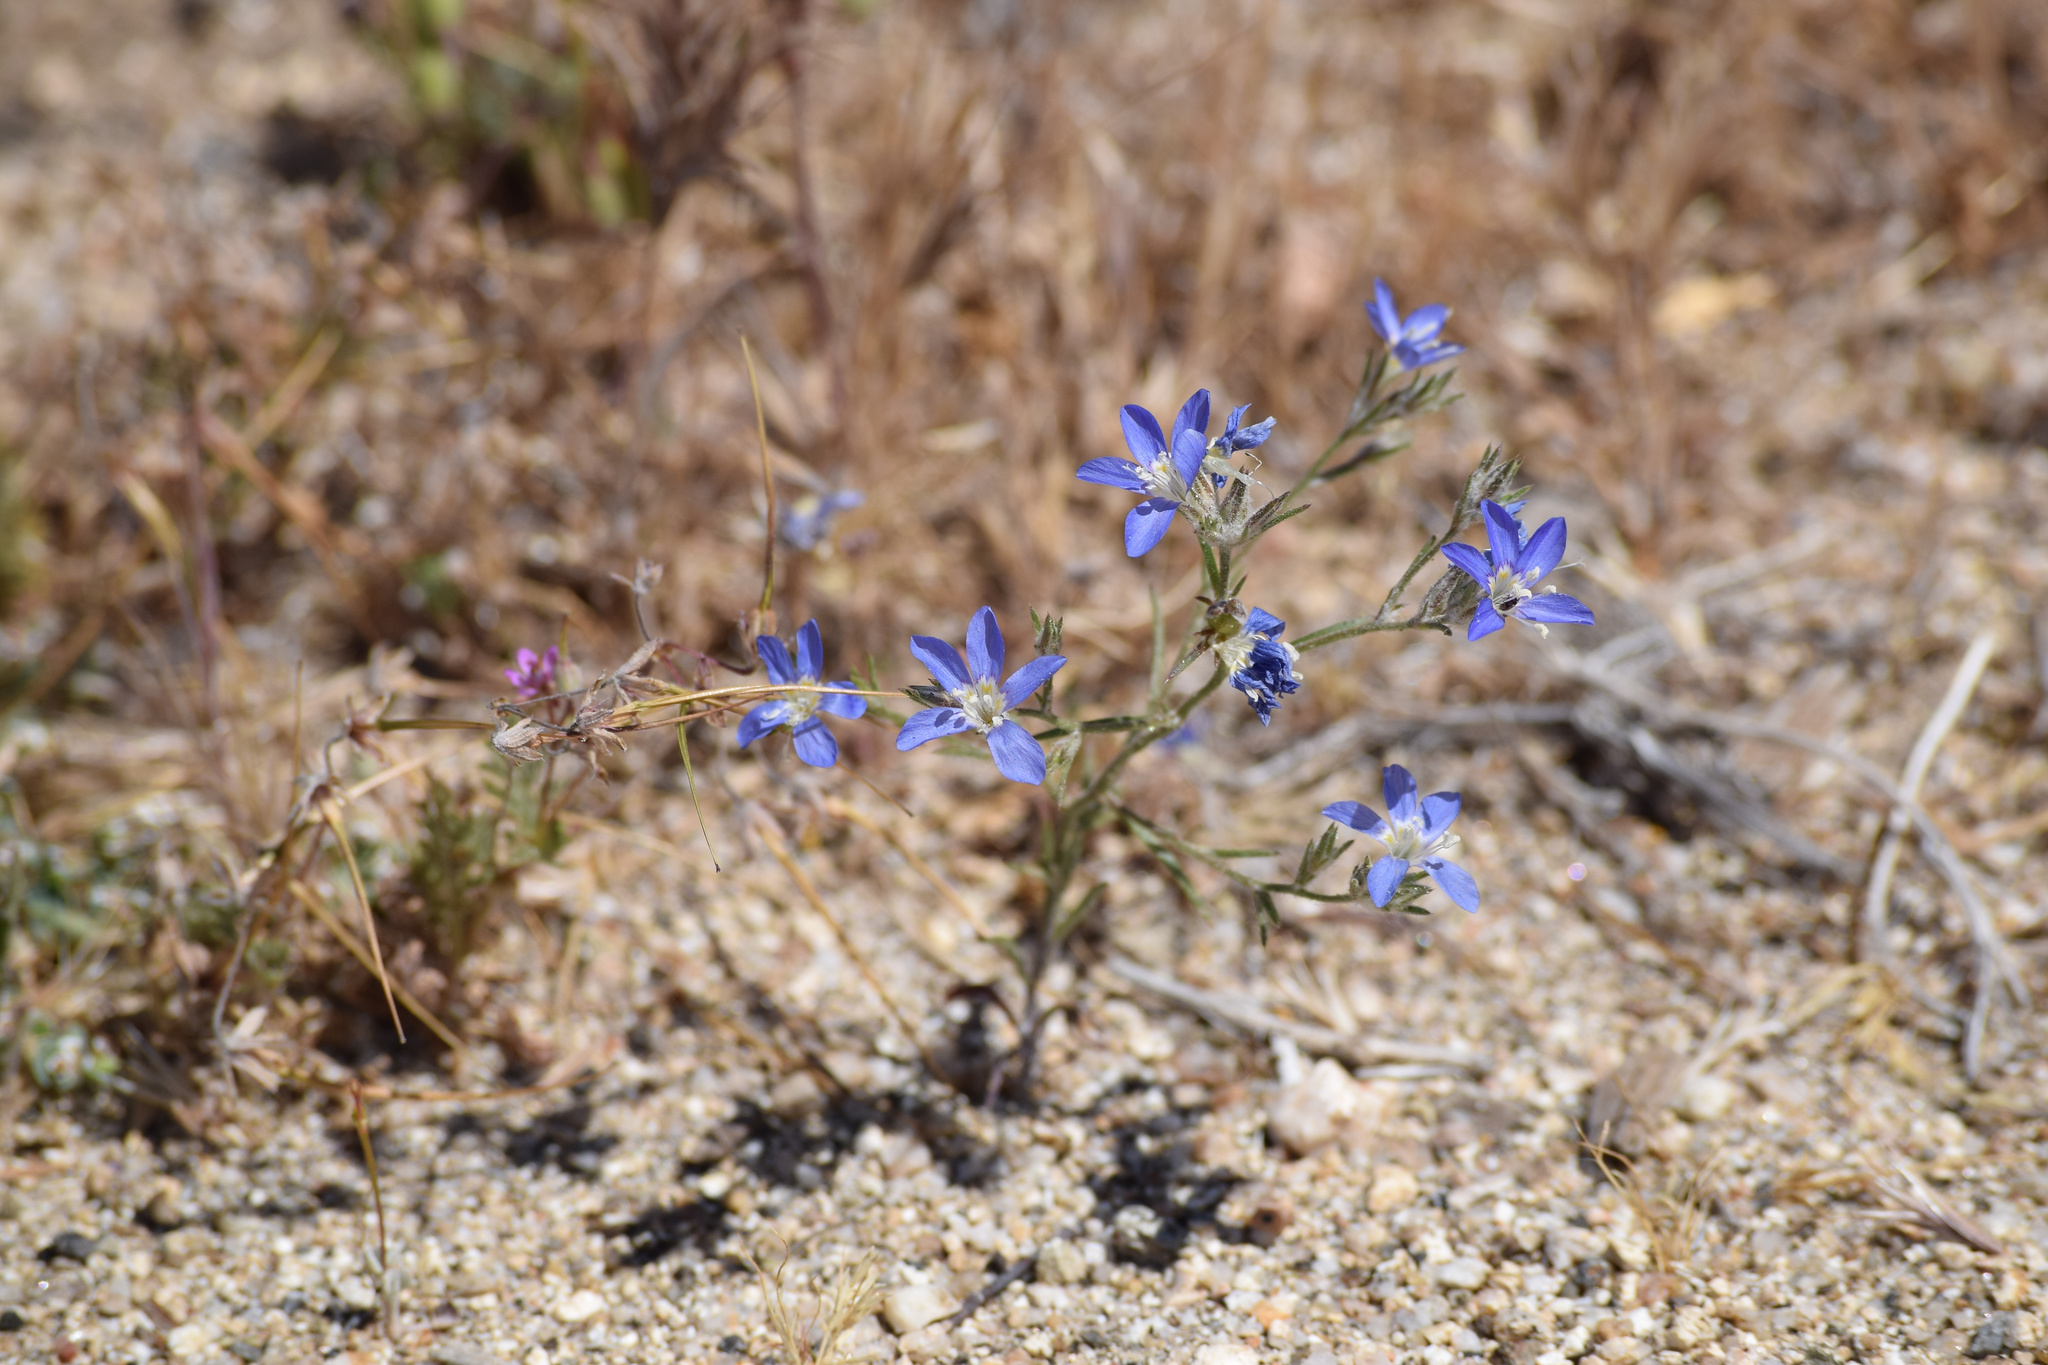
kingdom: Plantae
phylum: Tracheophyta
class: Magnoliopsida
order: Ericales
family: Polemoniaceae
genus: Eriastrum
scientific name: Eriastrum sapphirinum
